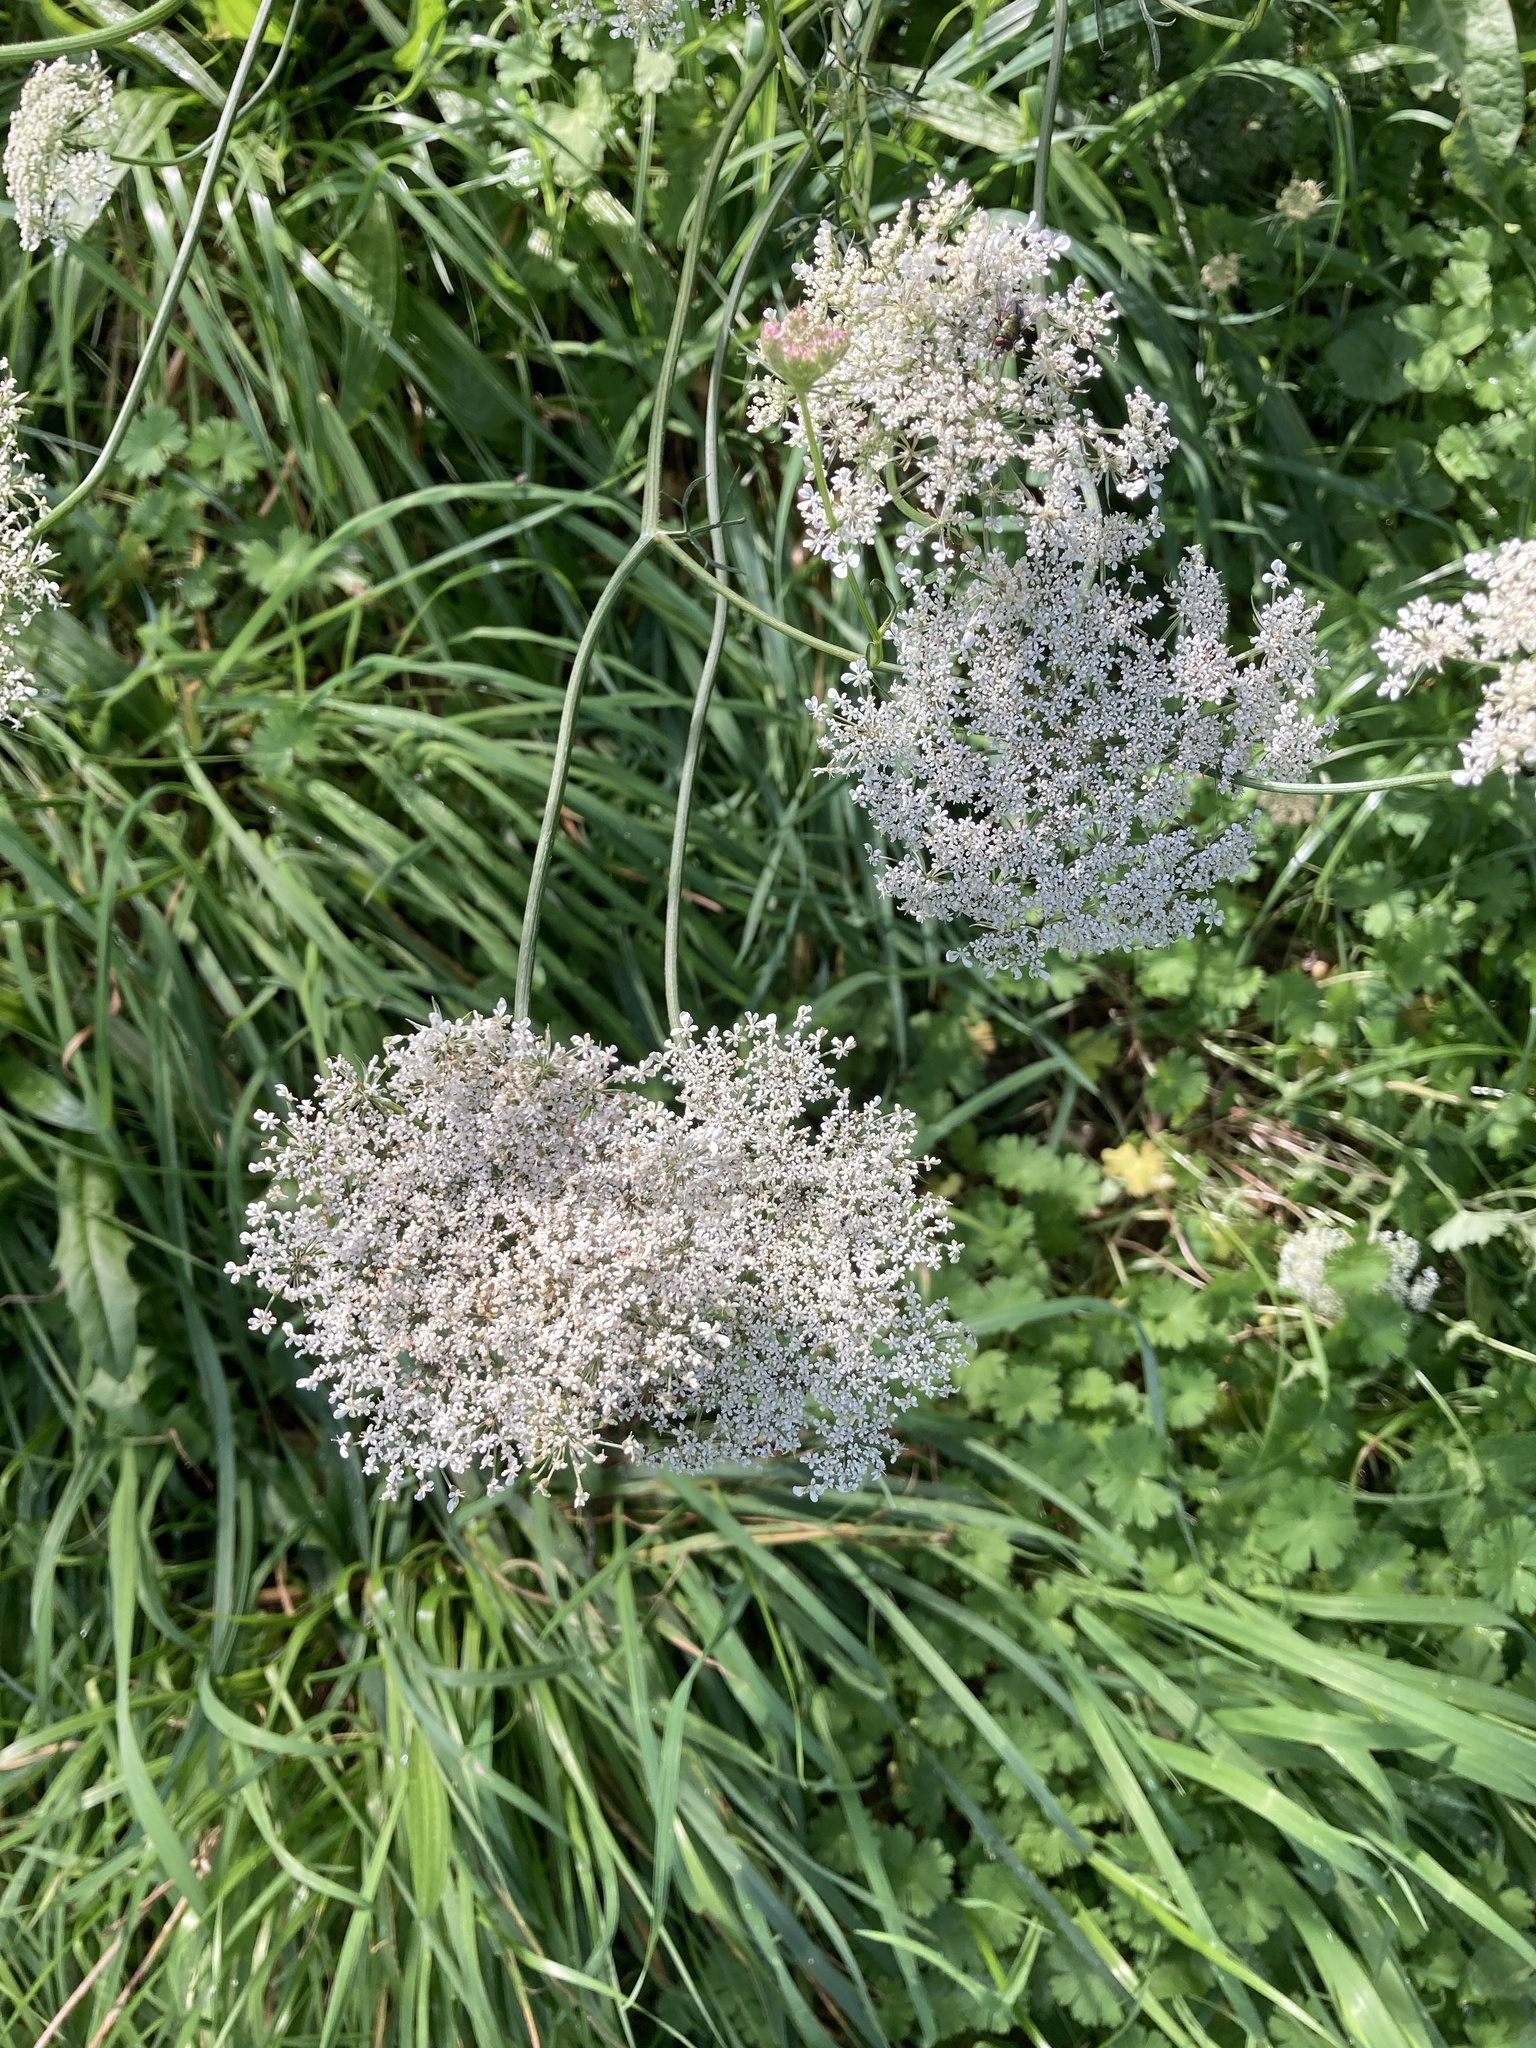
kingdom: Plantae
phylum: Tracheophyta
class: Magnoliopsida
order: Apiales
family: Apiaceae
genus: Daucus
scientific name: Daucus carota
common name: Wild carrot
